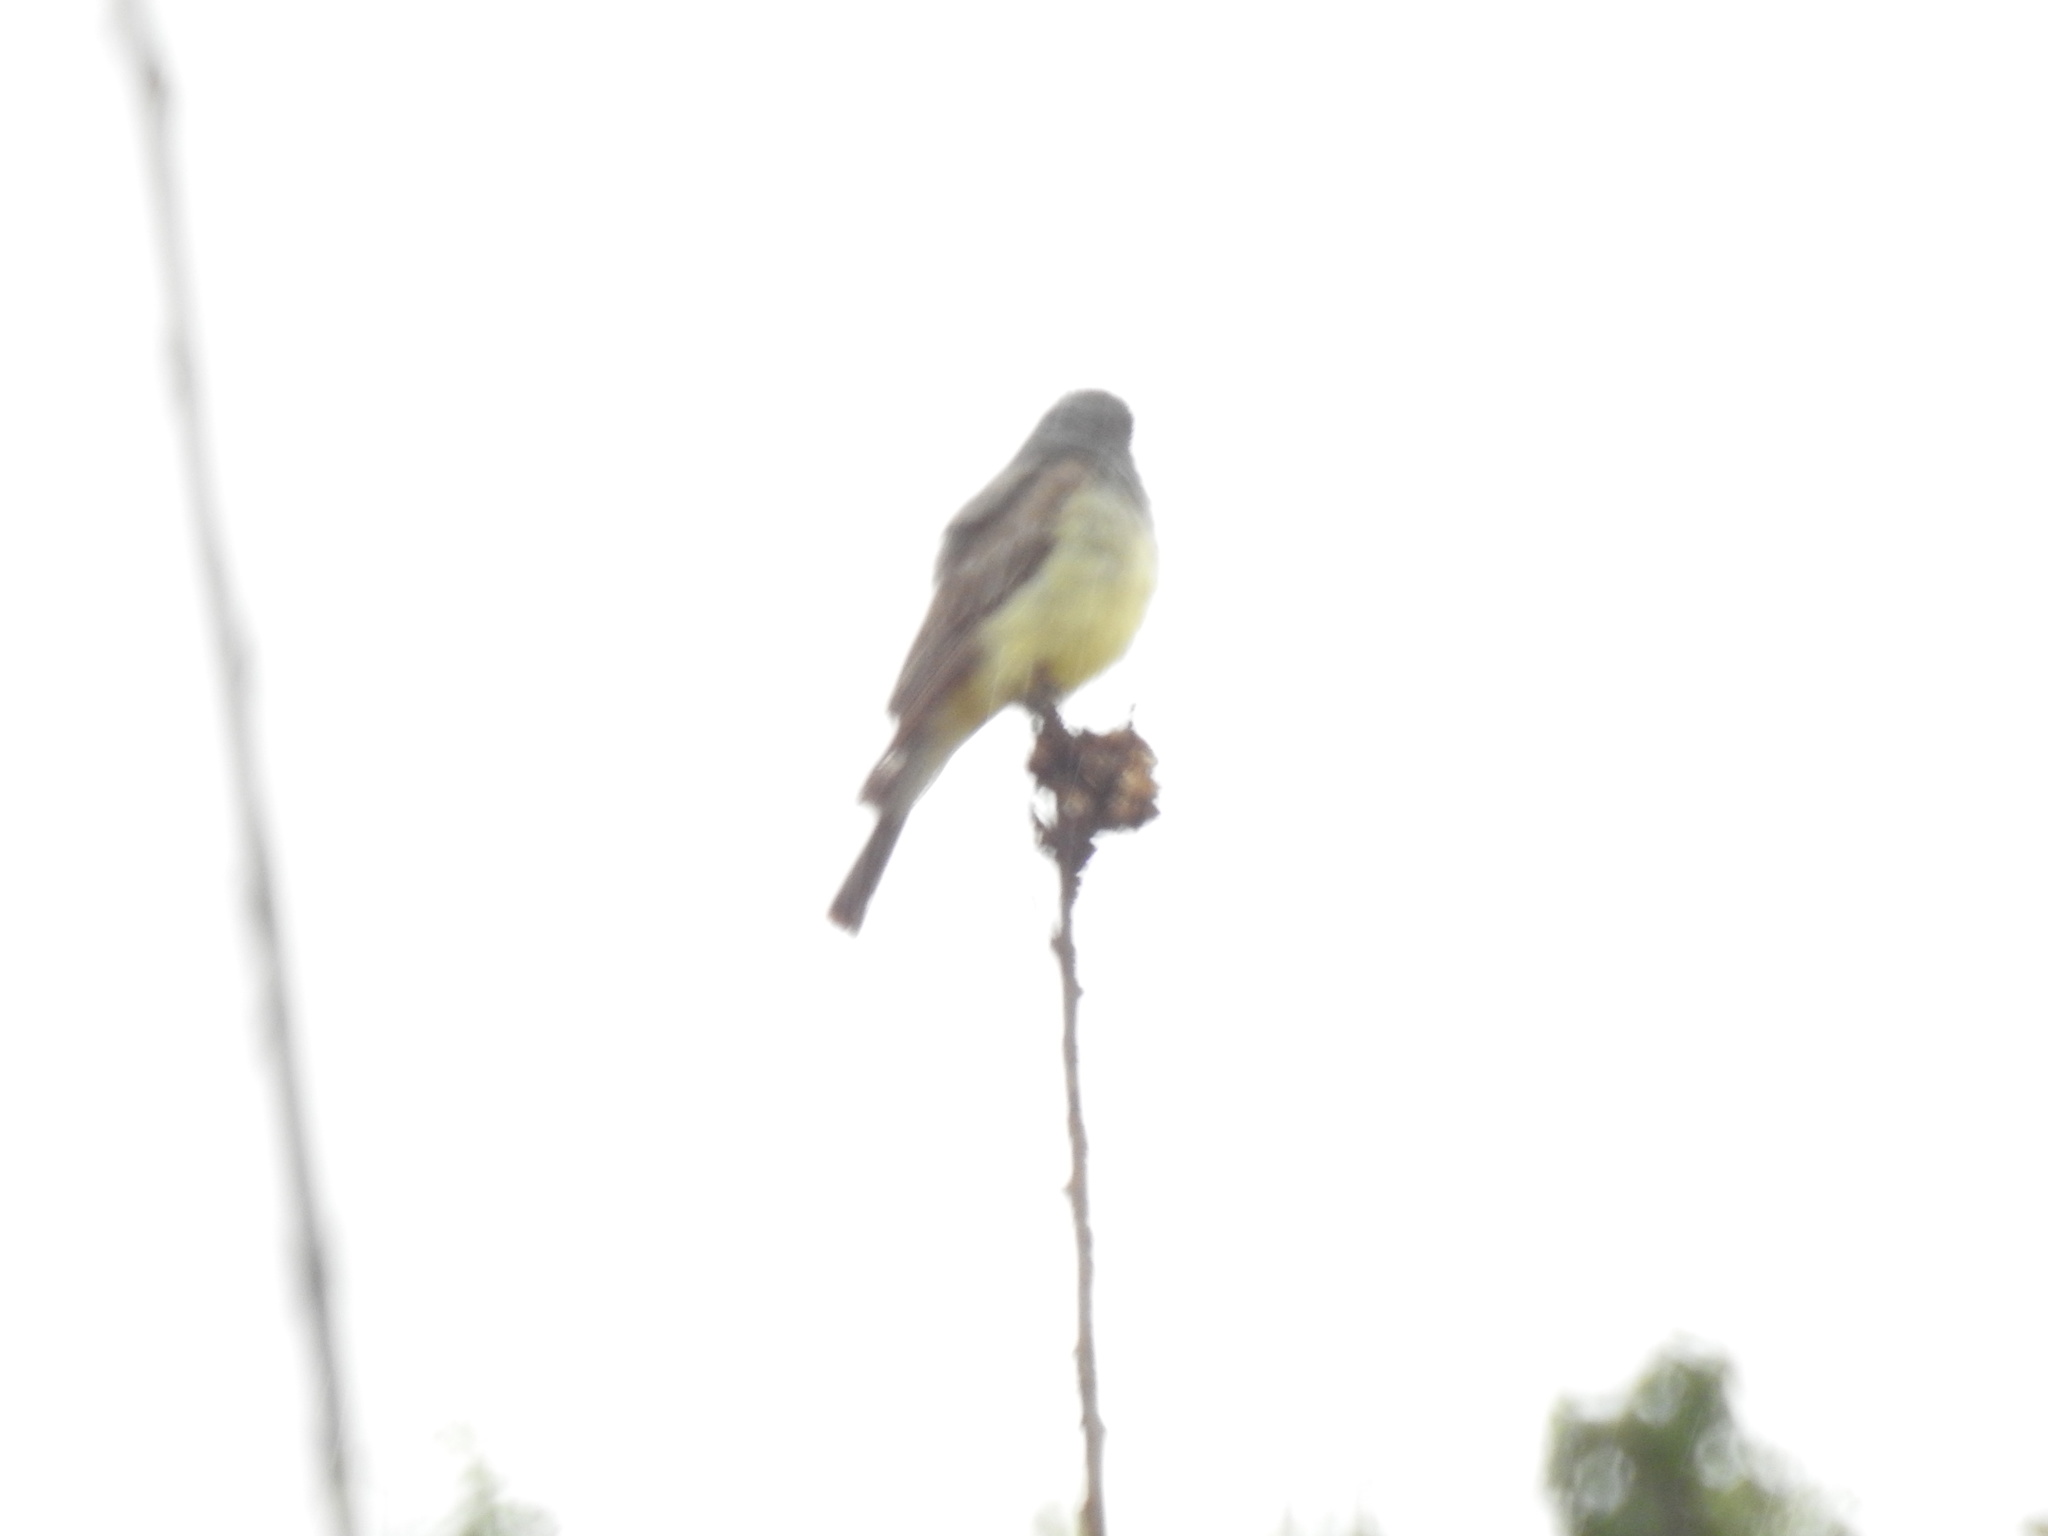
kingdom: Animalia
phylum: Chordata
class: Aves
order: Passeriformes
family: Tyrannidae
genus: Tyrannus
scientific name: Tyrannus vociferans
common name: Cassin's kingbird
